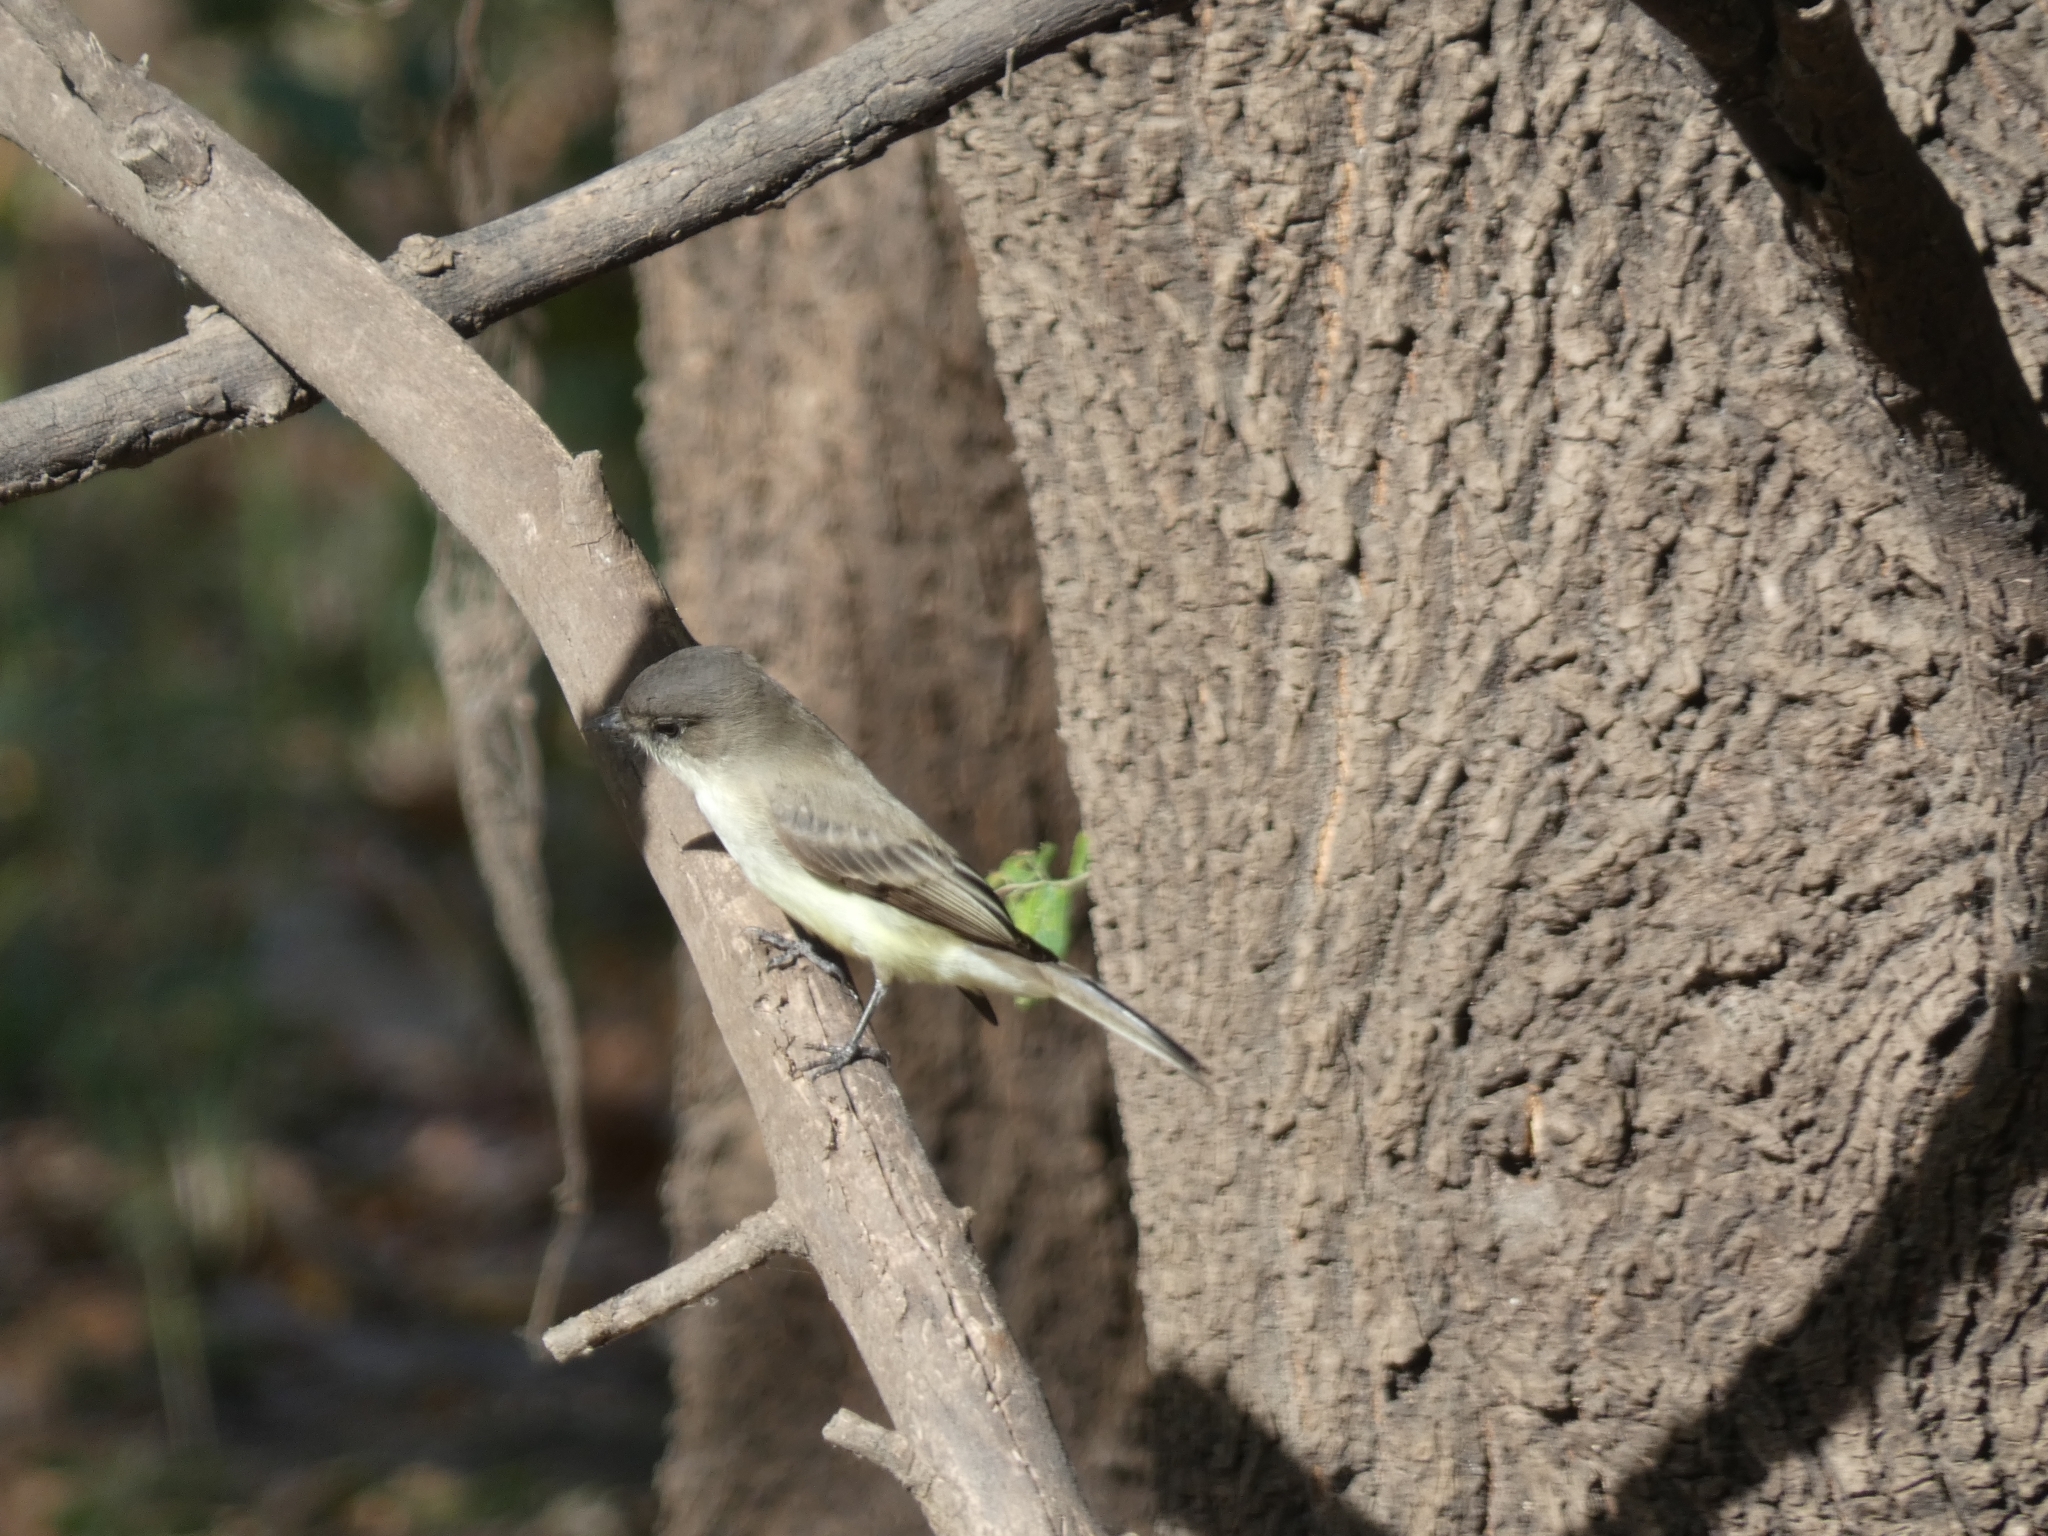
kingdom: Animalia
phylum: Chordata
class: Aves
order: Passeriformes
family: Tyrannidae
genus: Sayornis
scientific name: Sayornis phoebe
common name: Eastern phoebe
